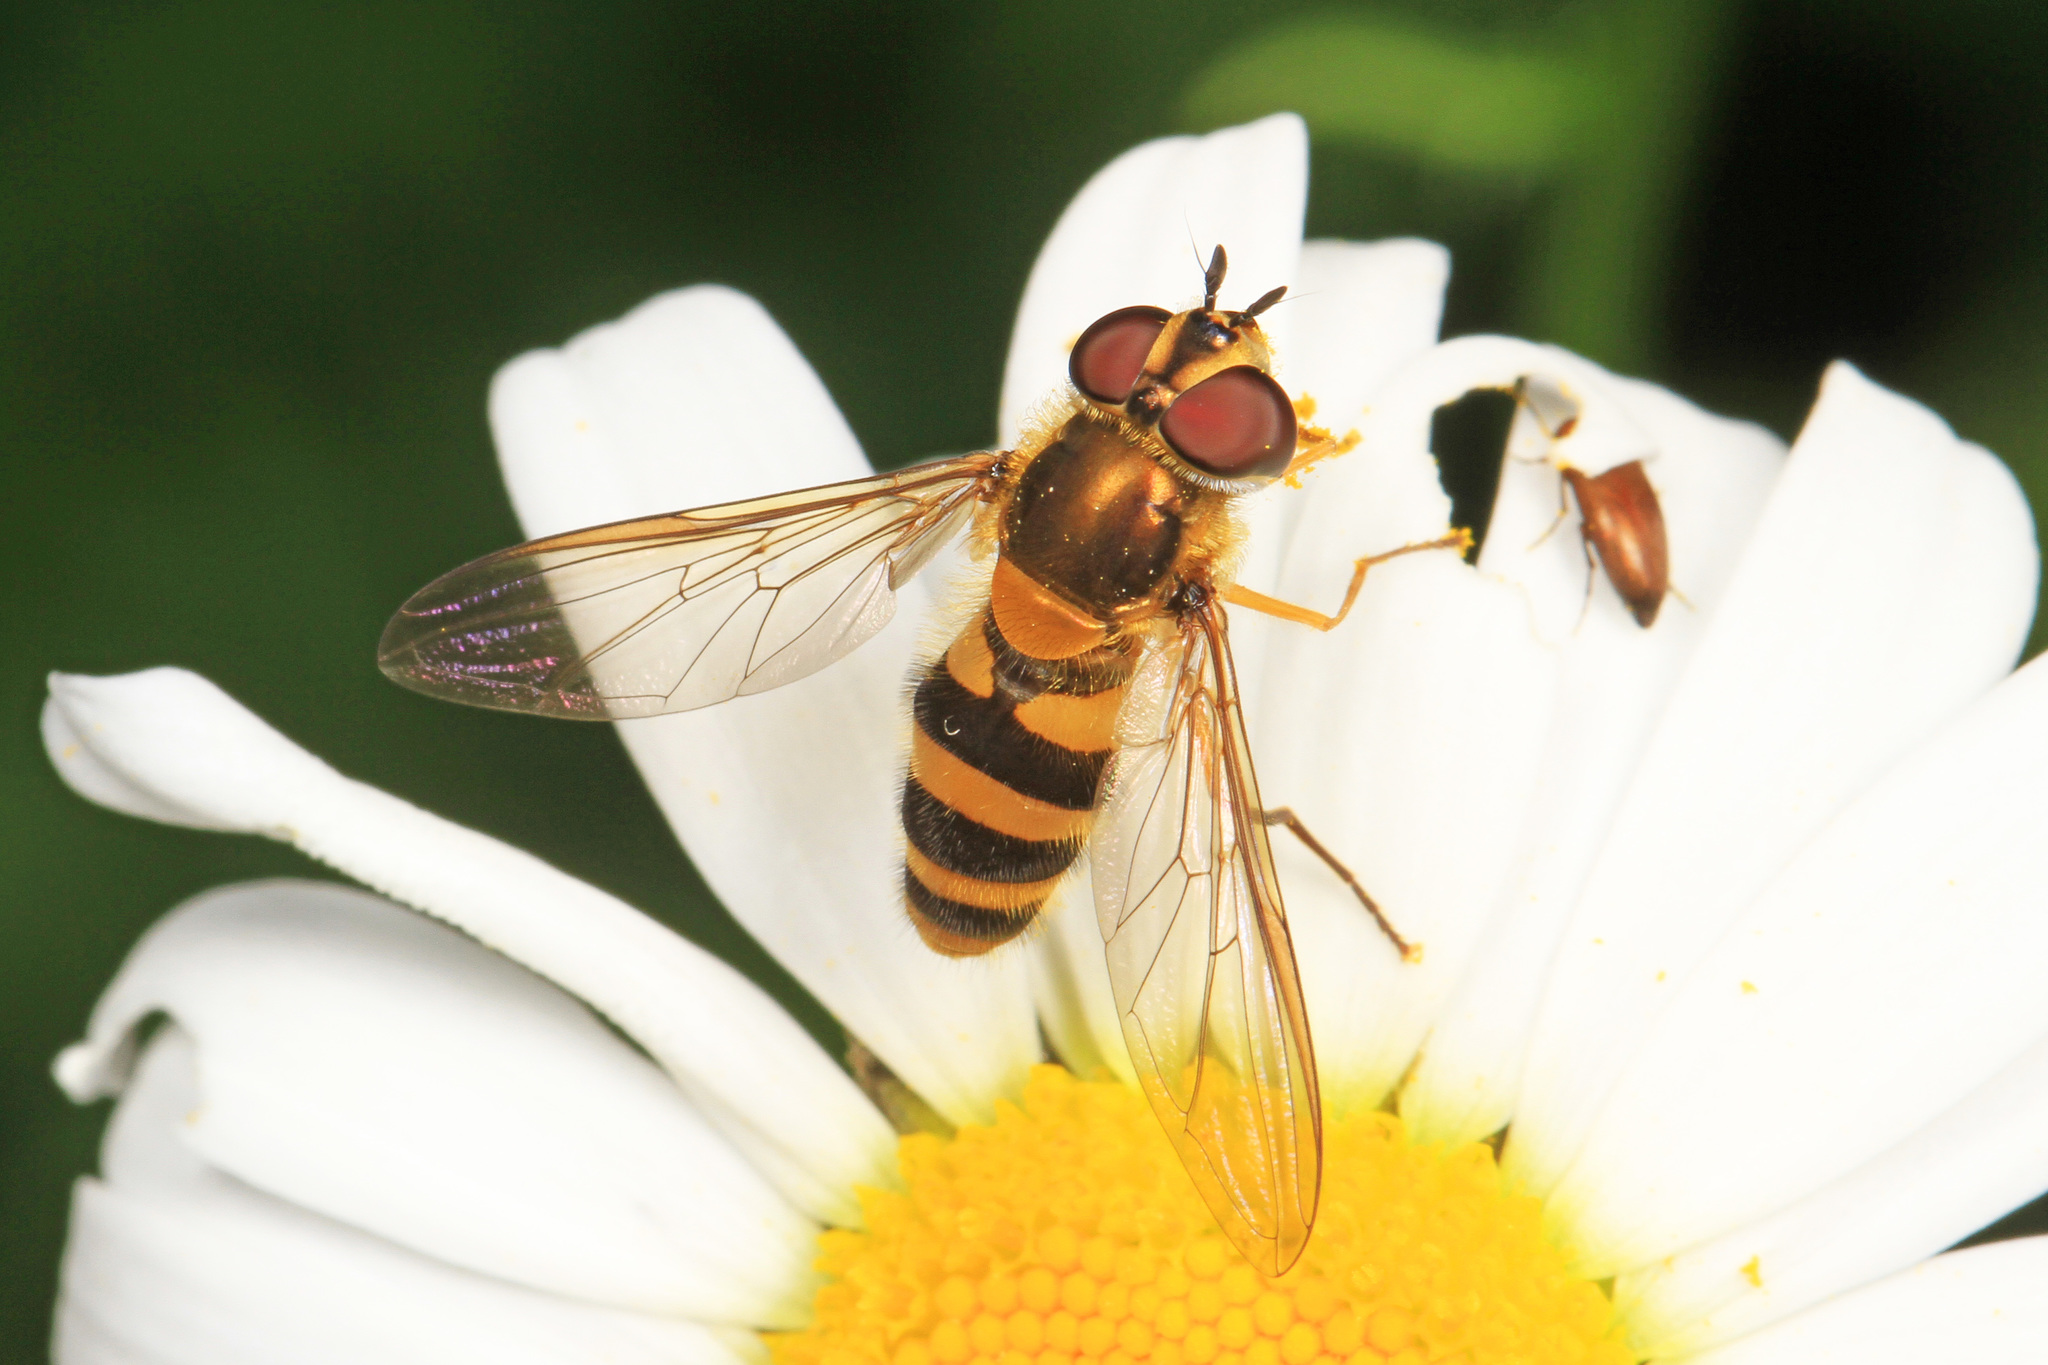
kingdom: Animalia
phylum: Arthropoda
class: Insecta
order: Diptera
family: Syrphidae
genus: Epistrophe
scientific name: Epistrophe grossulariae
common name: Black-horned smoothtail
